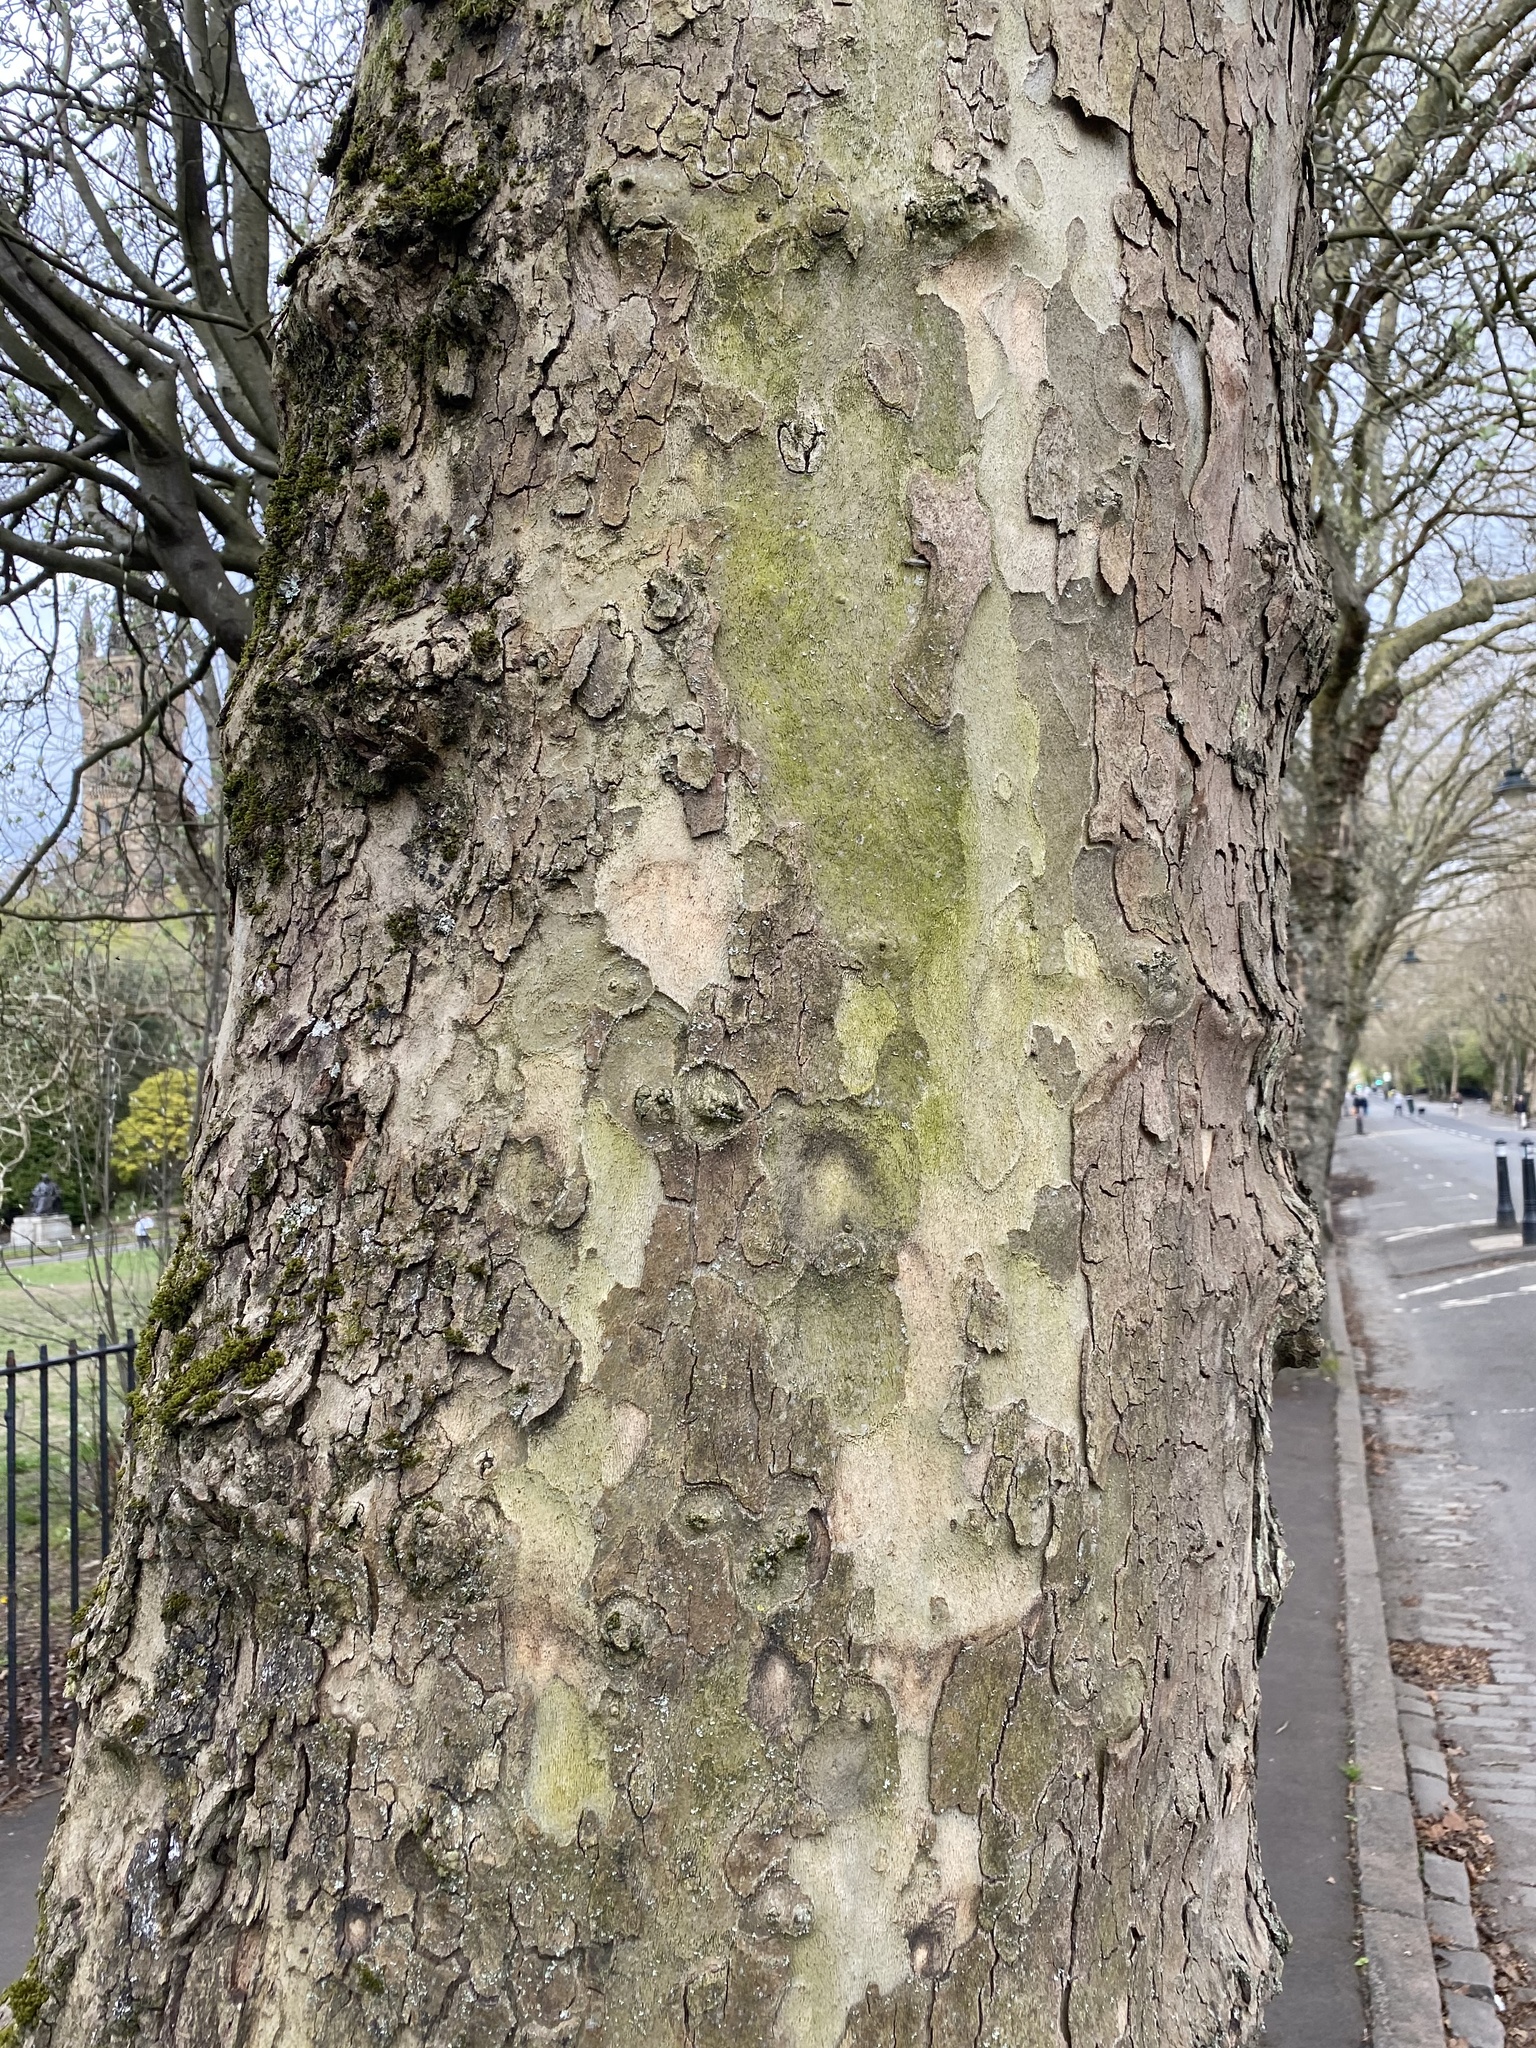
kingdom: Plantae
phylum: Tracheophyta
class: Magnoliopsida
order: Proteales
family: Platanaceae
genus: Platanus
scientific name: Platanus hispanica
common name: London plane
